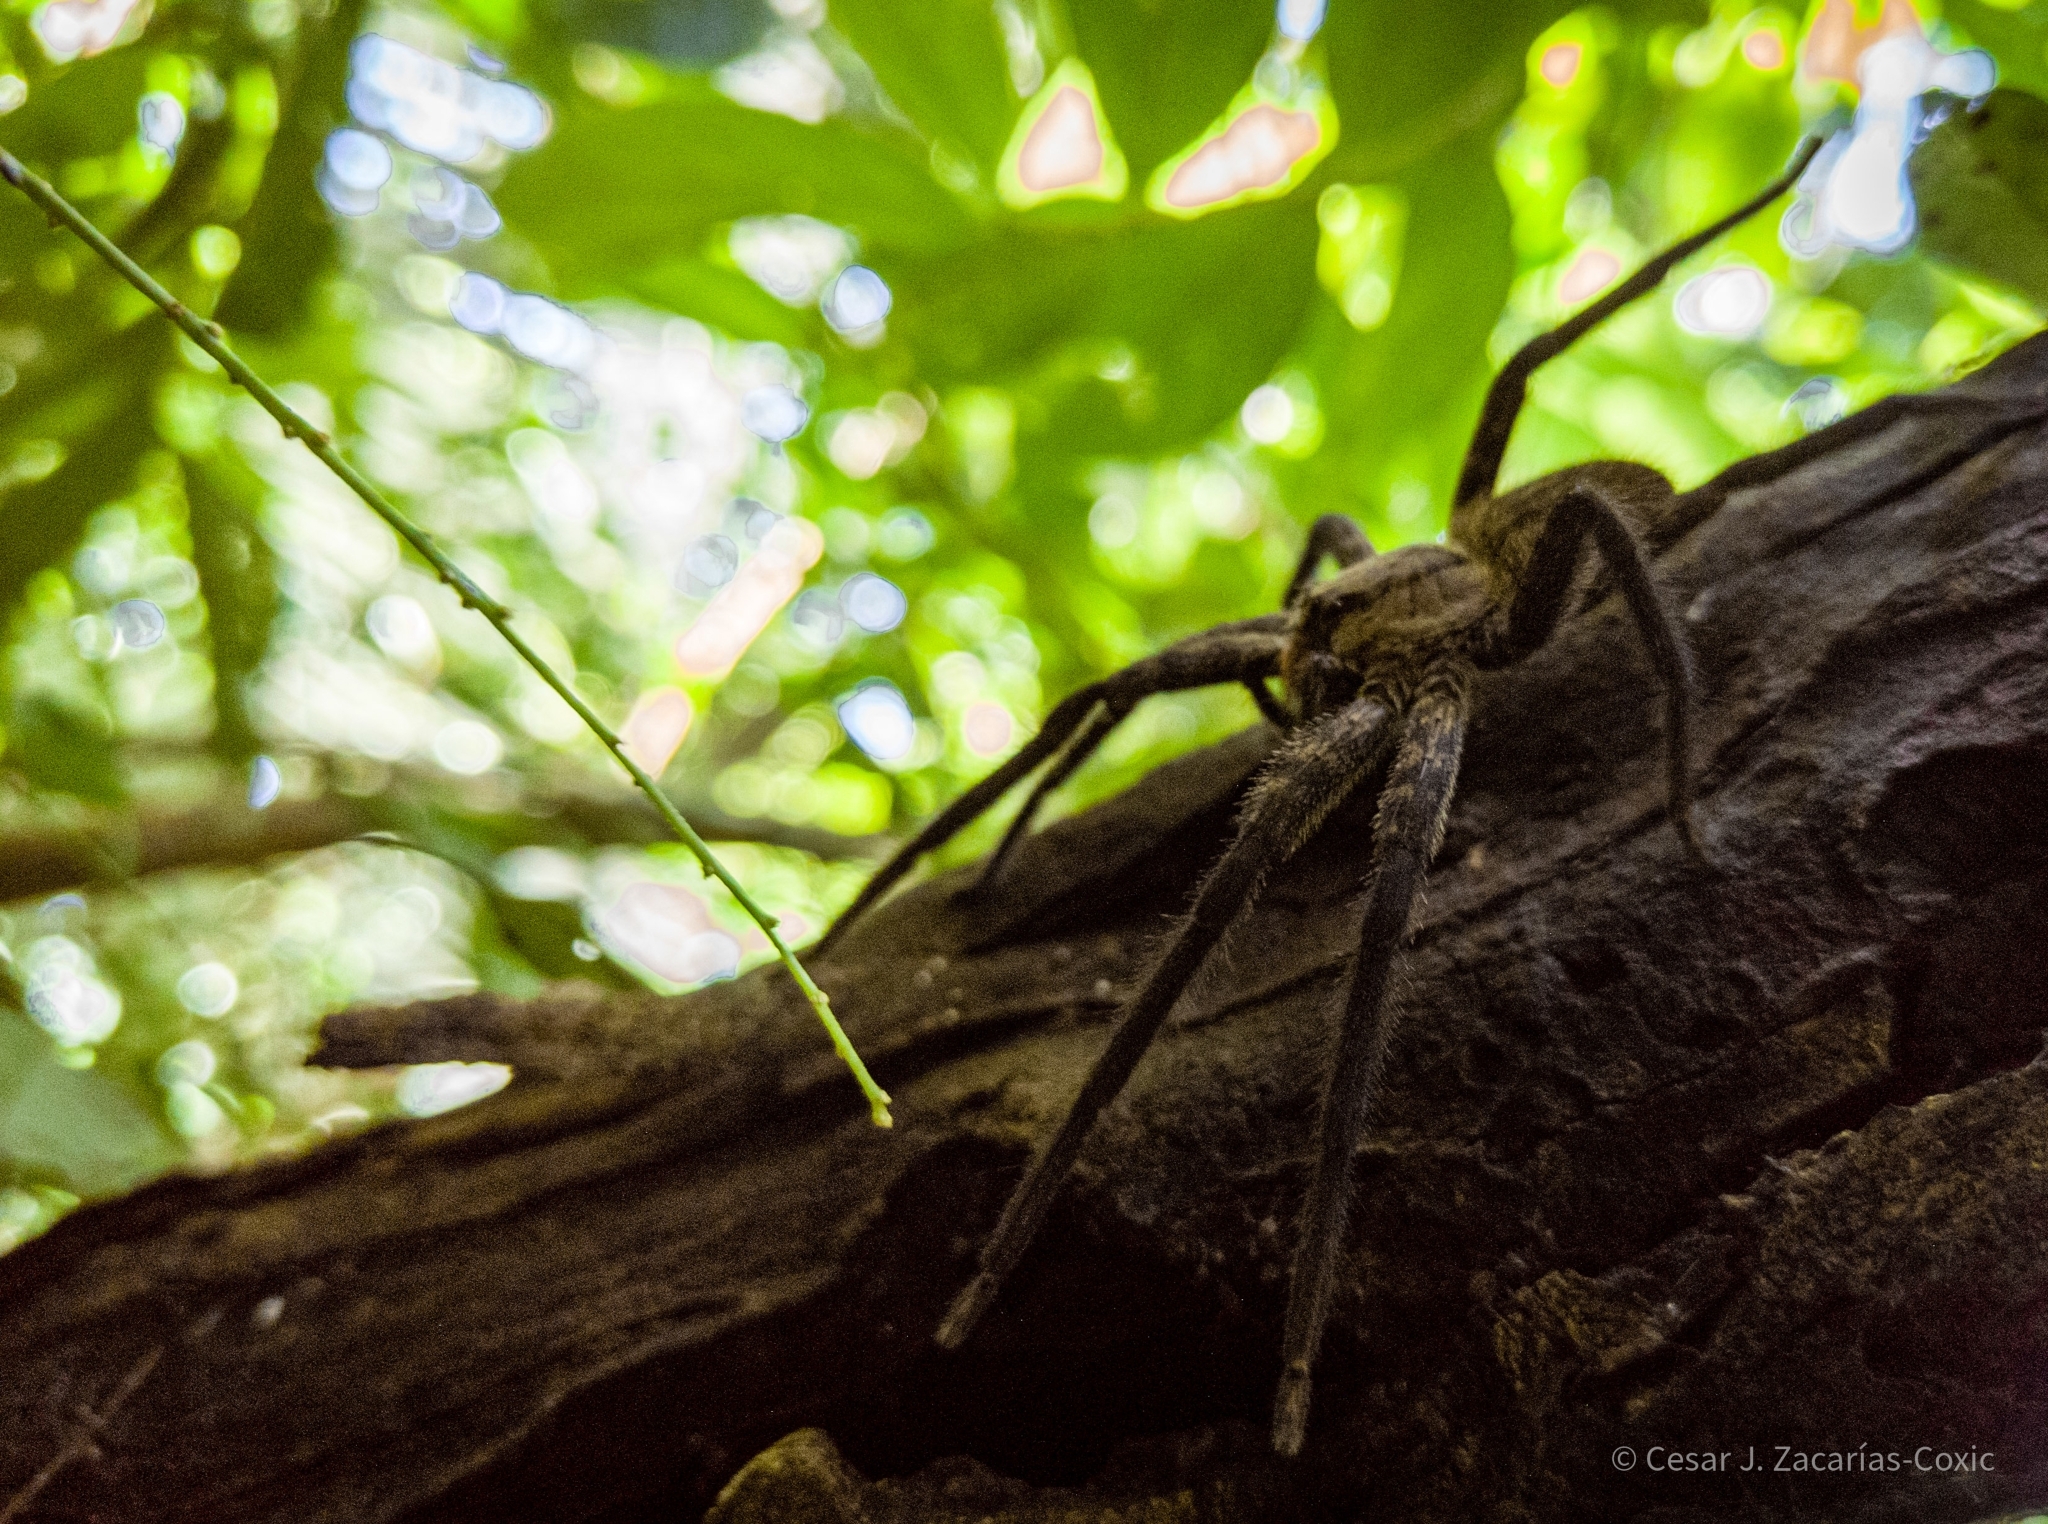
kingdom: Animalia
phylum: Arthropoda
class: Arachnida
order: Araneae
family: Trechaleidae
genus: Cupiennius
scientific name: Cupiennius chiapanensis
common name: Wandering spiders
